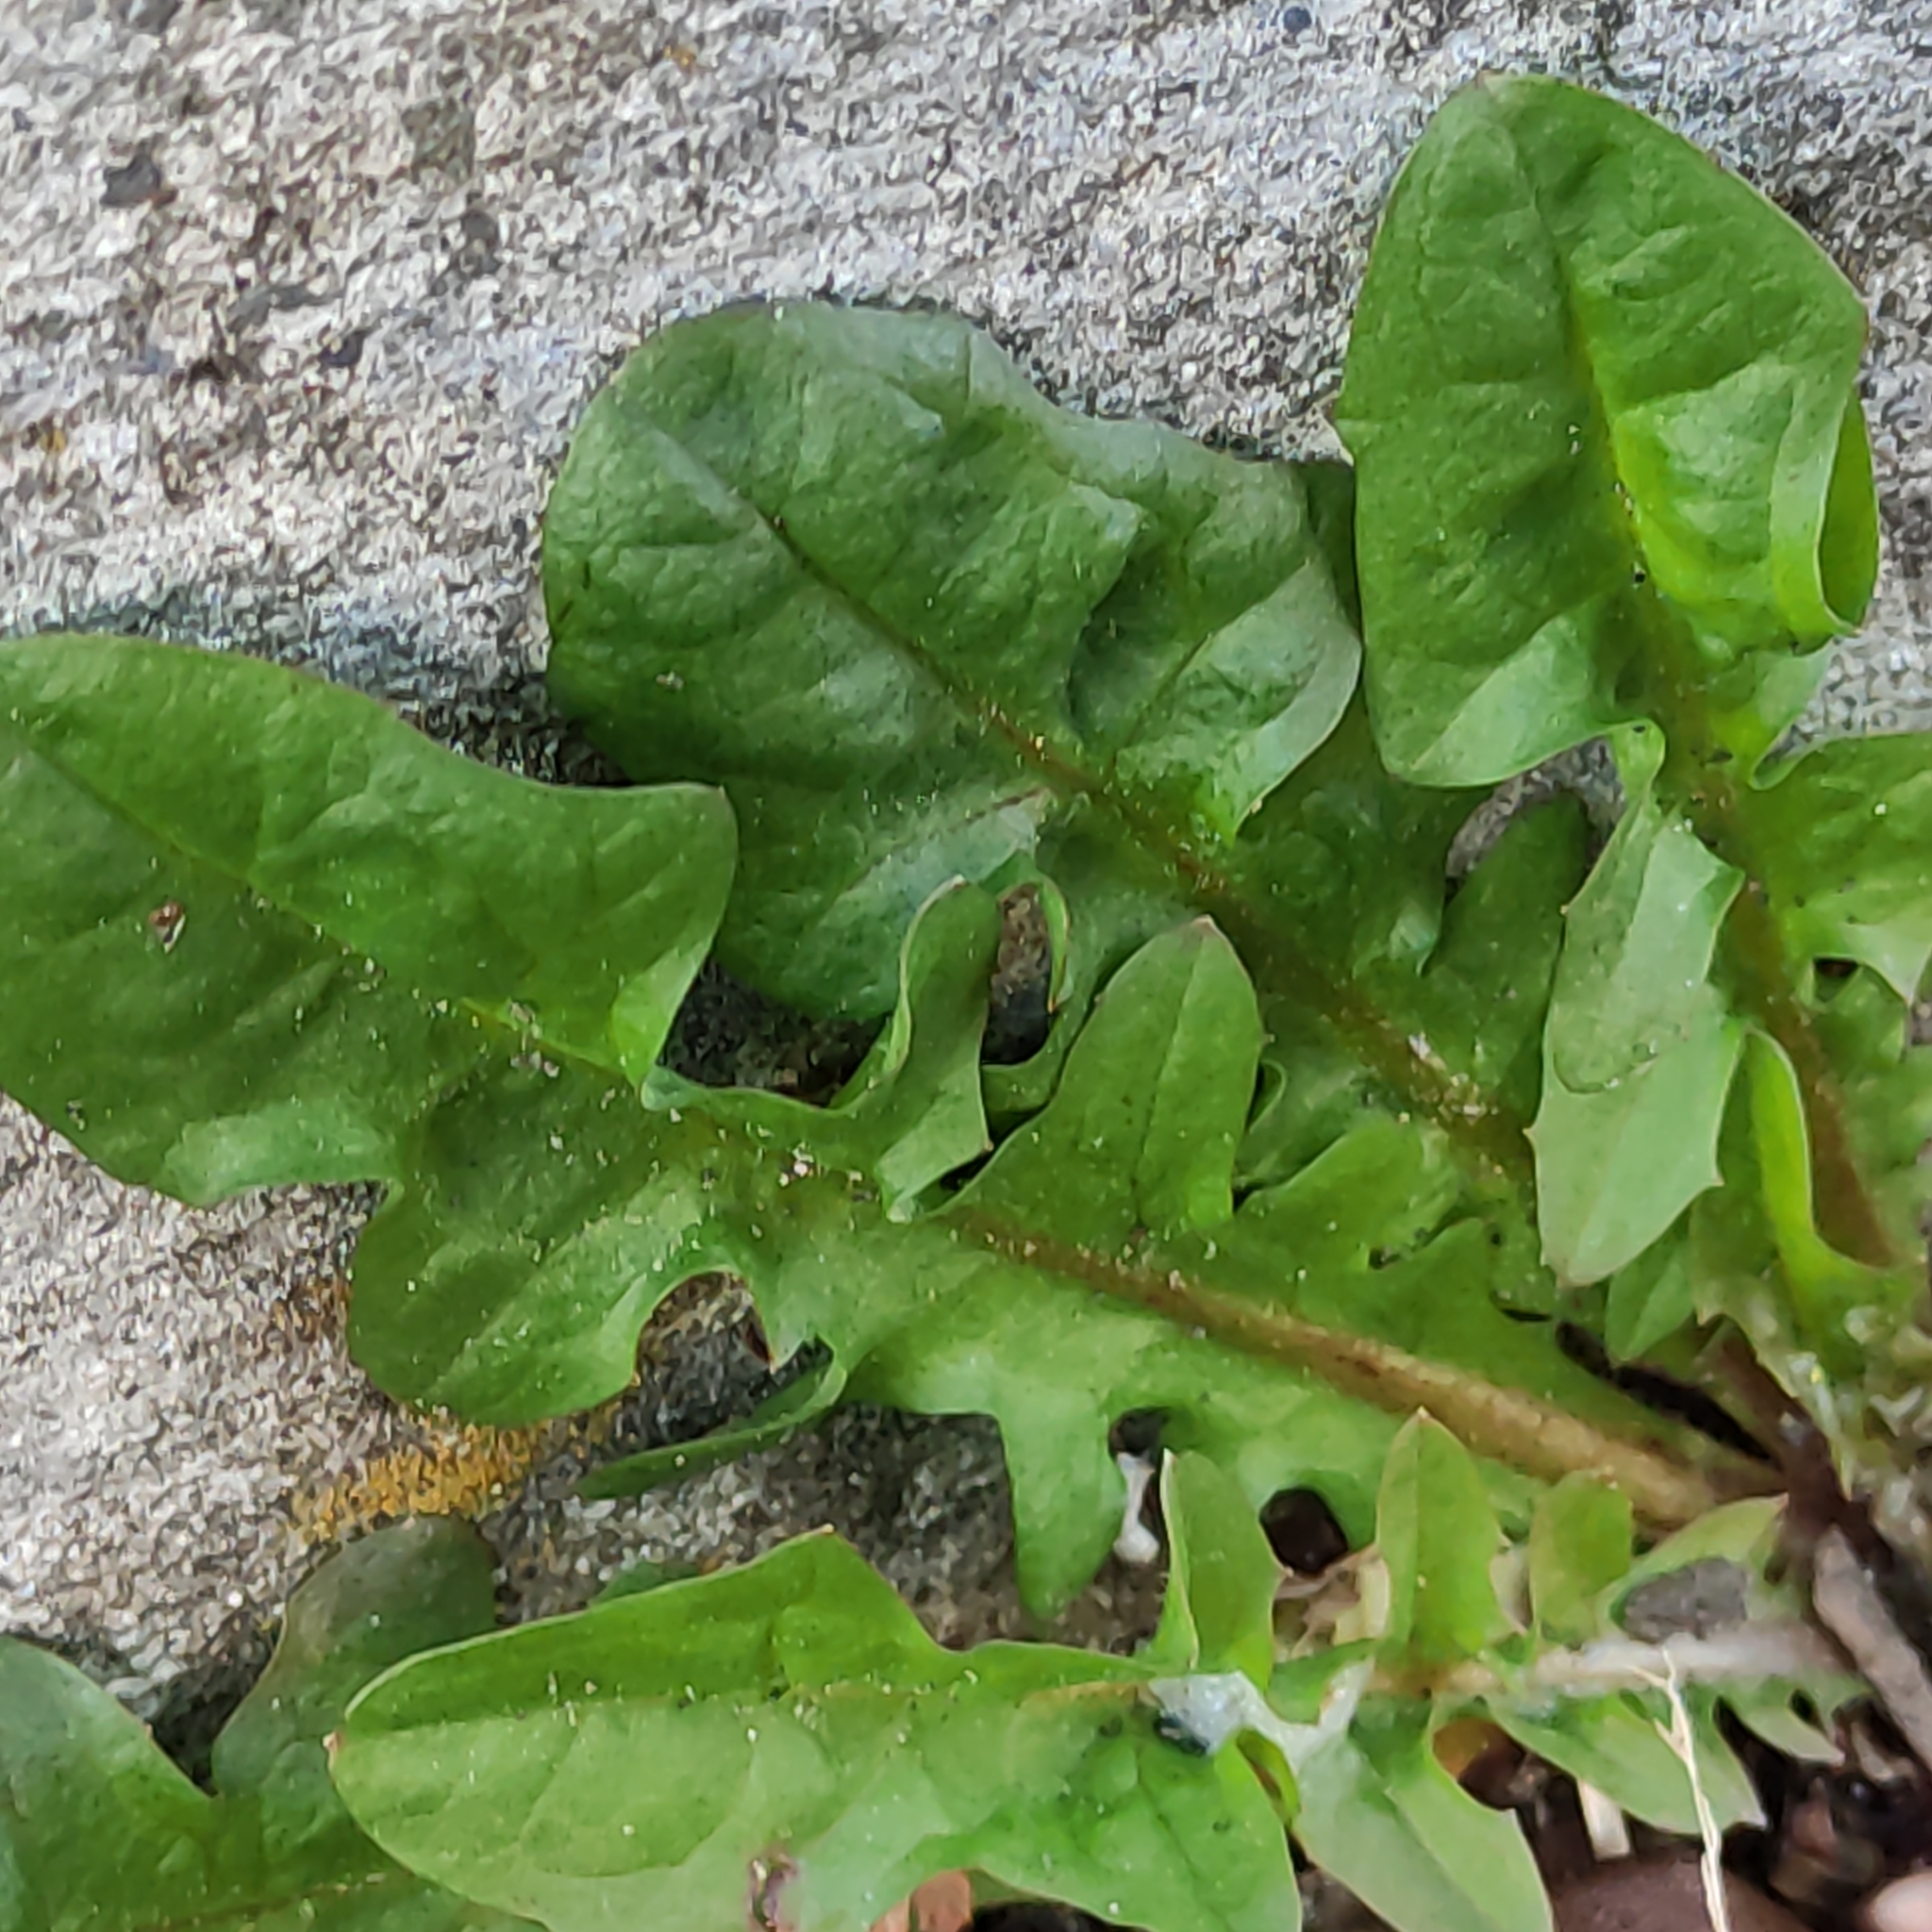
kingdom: Plantae
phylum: Tracheophyta
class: Magnoliopsida
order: Asterales
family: Asteraceae
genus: Taraxacum
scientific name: Taraxacum officinale
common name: Common dandelion
